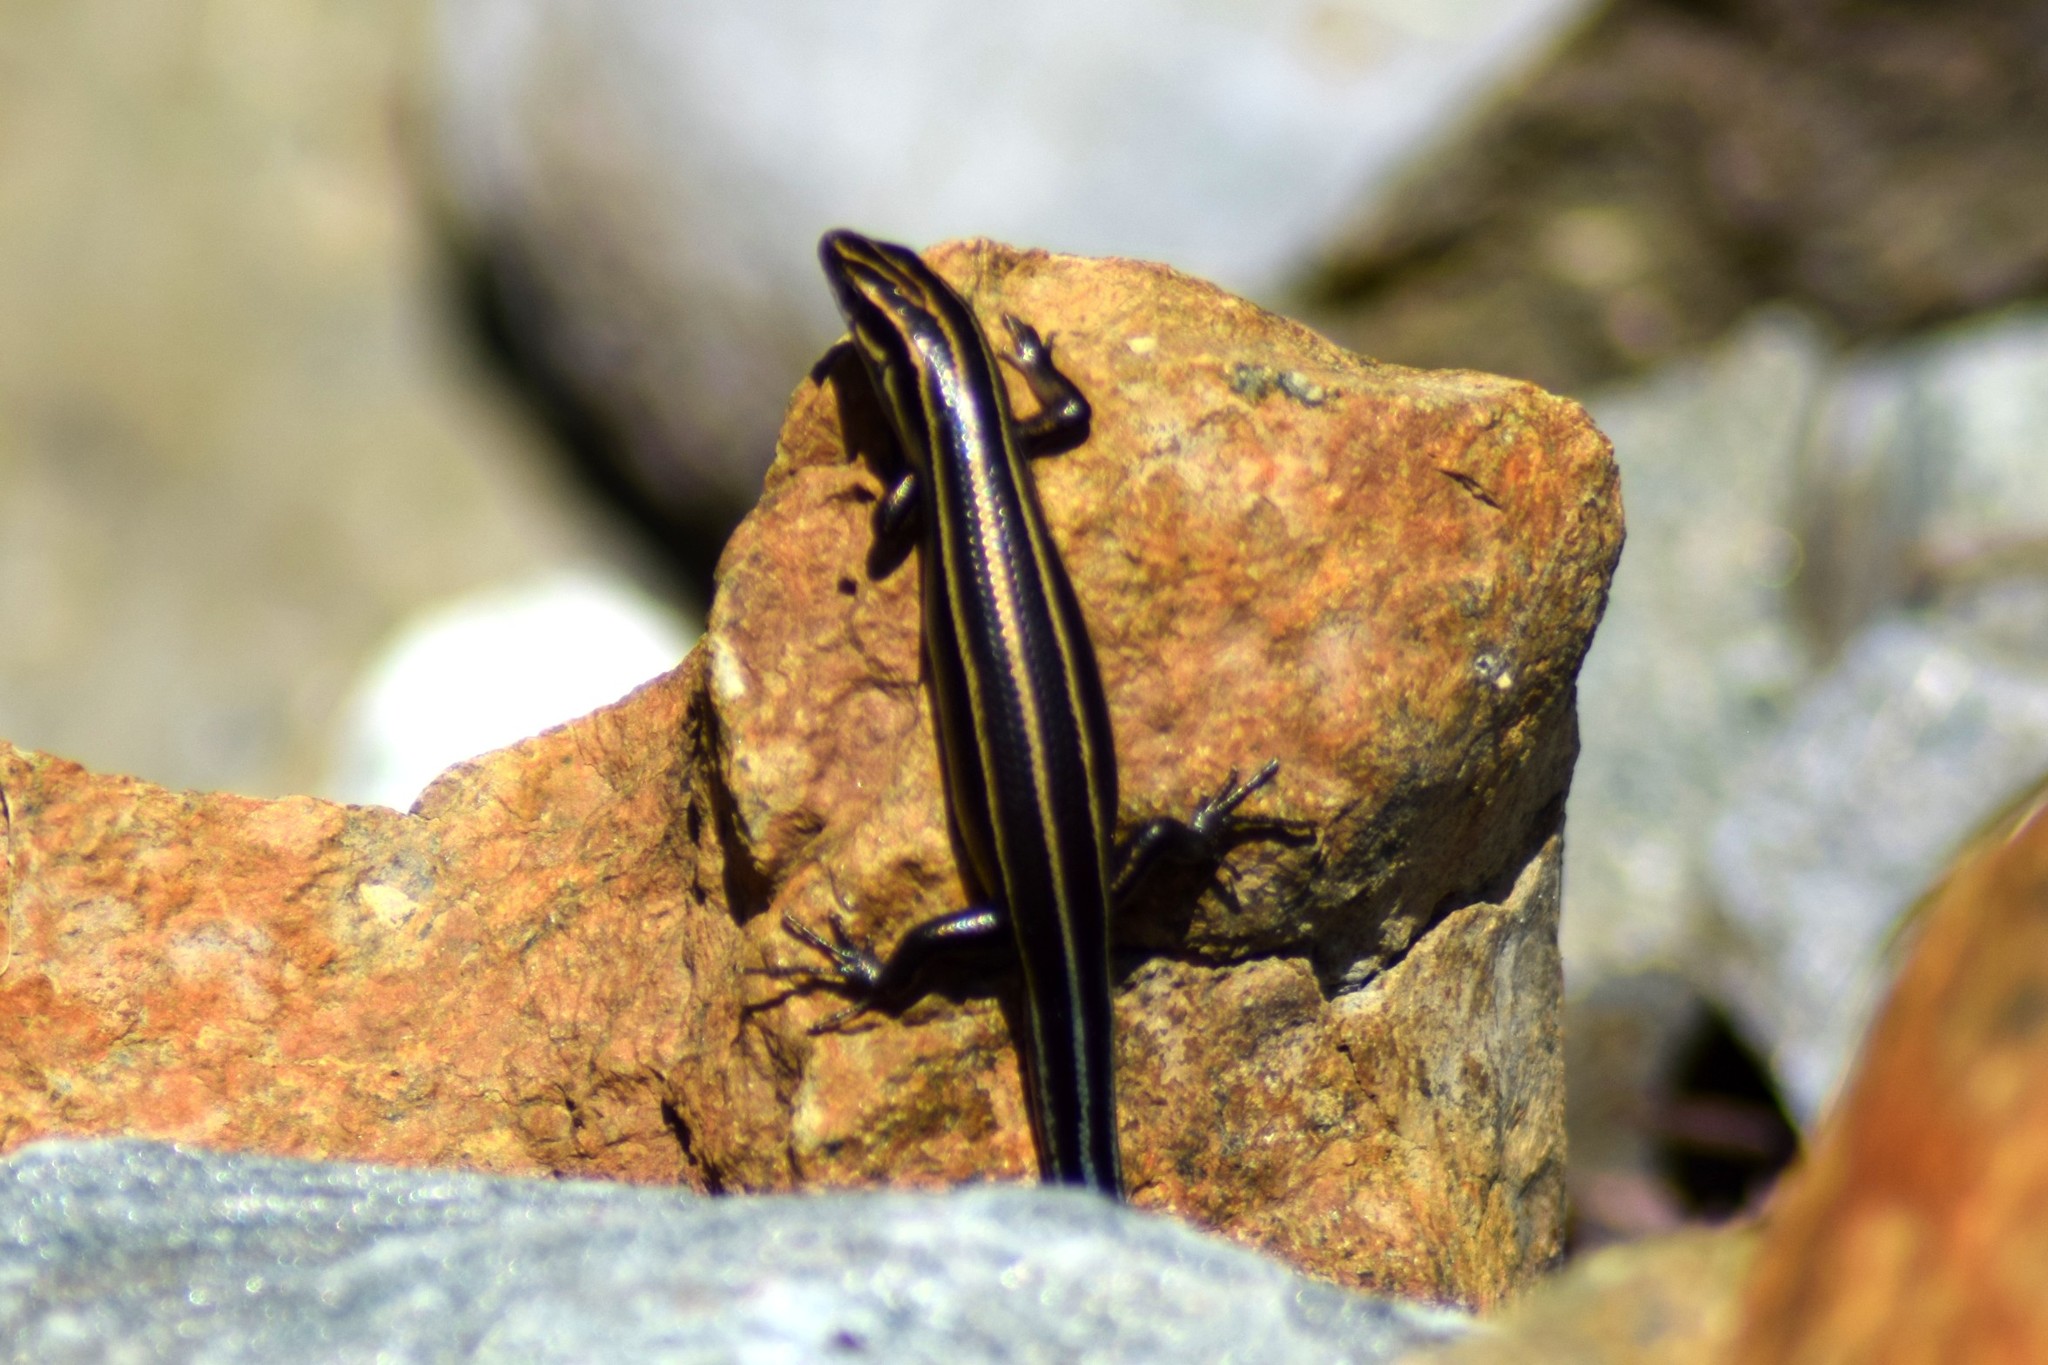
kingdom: Animalia
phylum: Chordata
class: Squamata
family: Scincidae
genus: Plestiodon
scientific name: Plestiodon fasciatus
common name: Five-lined skink
